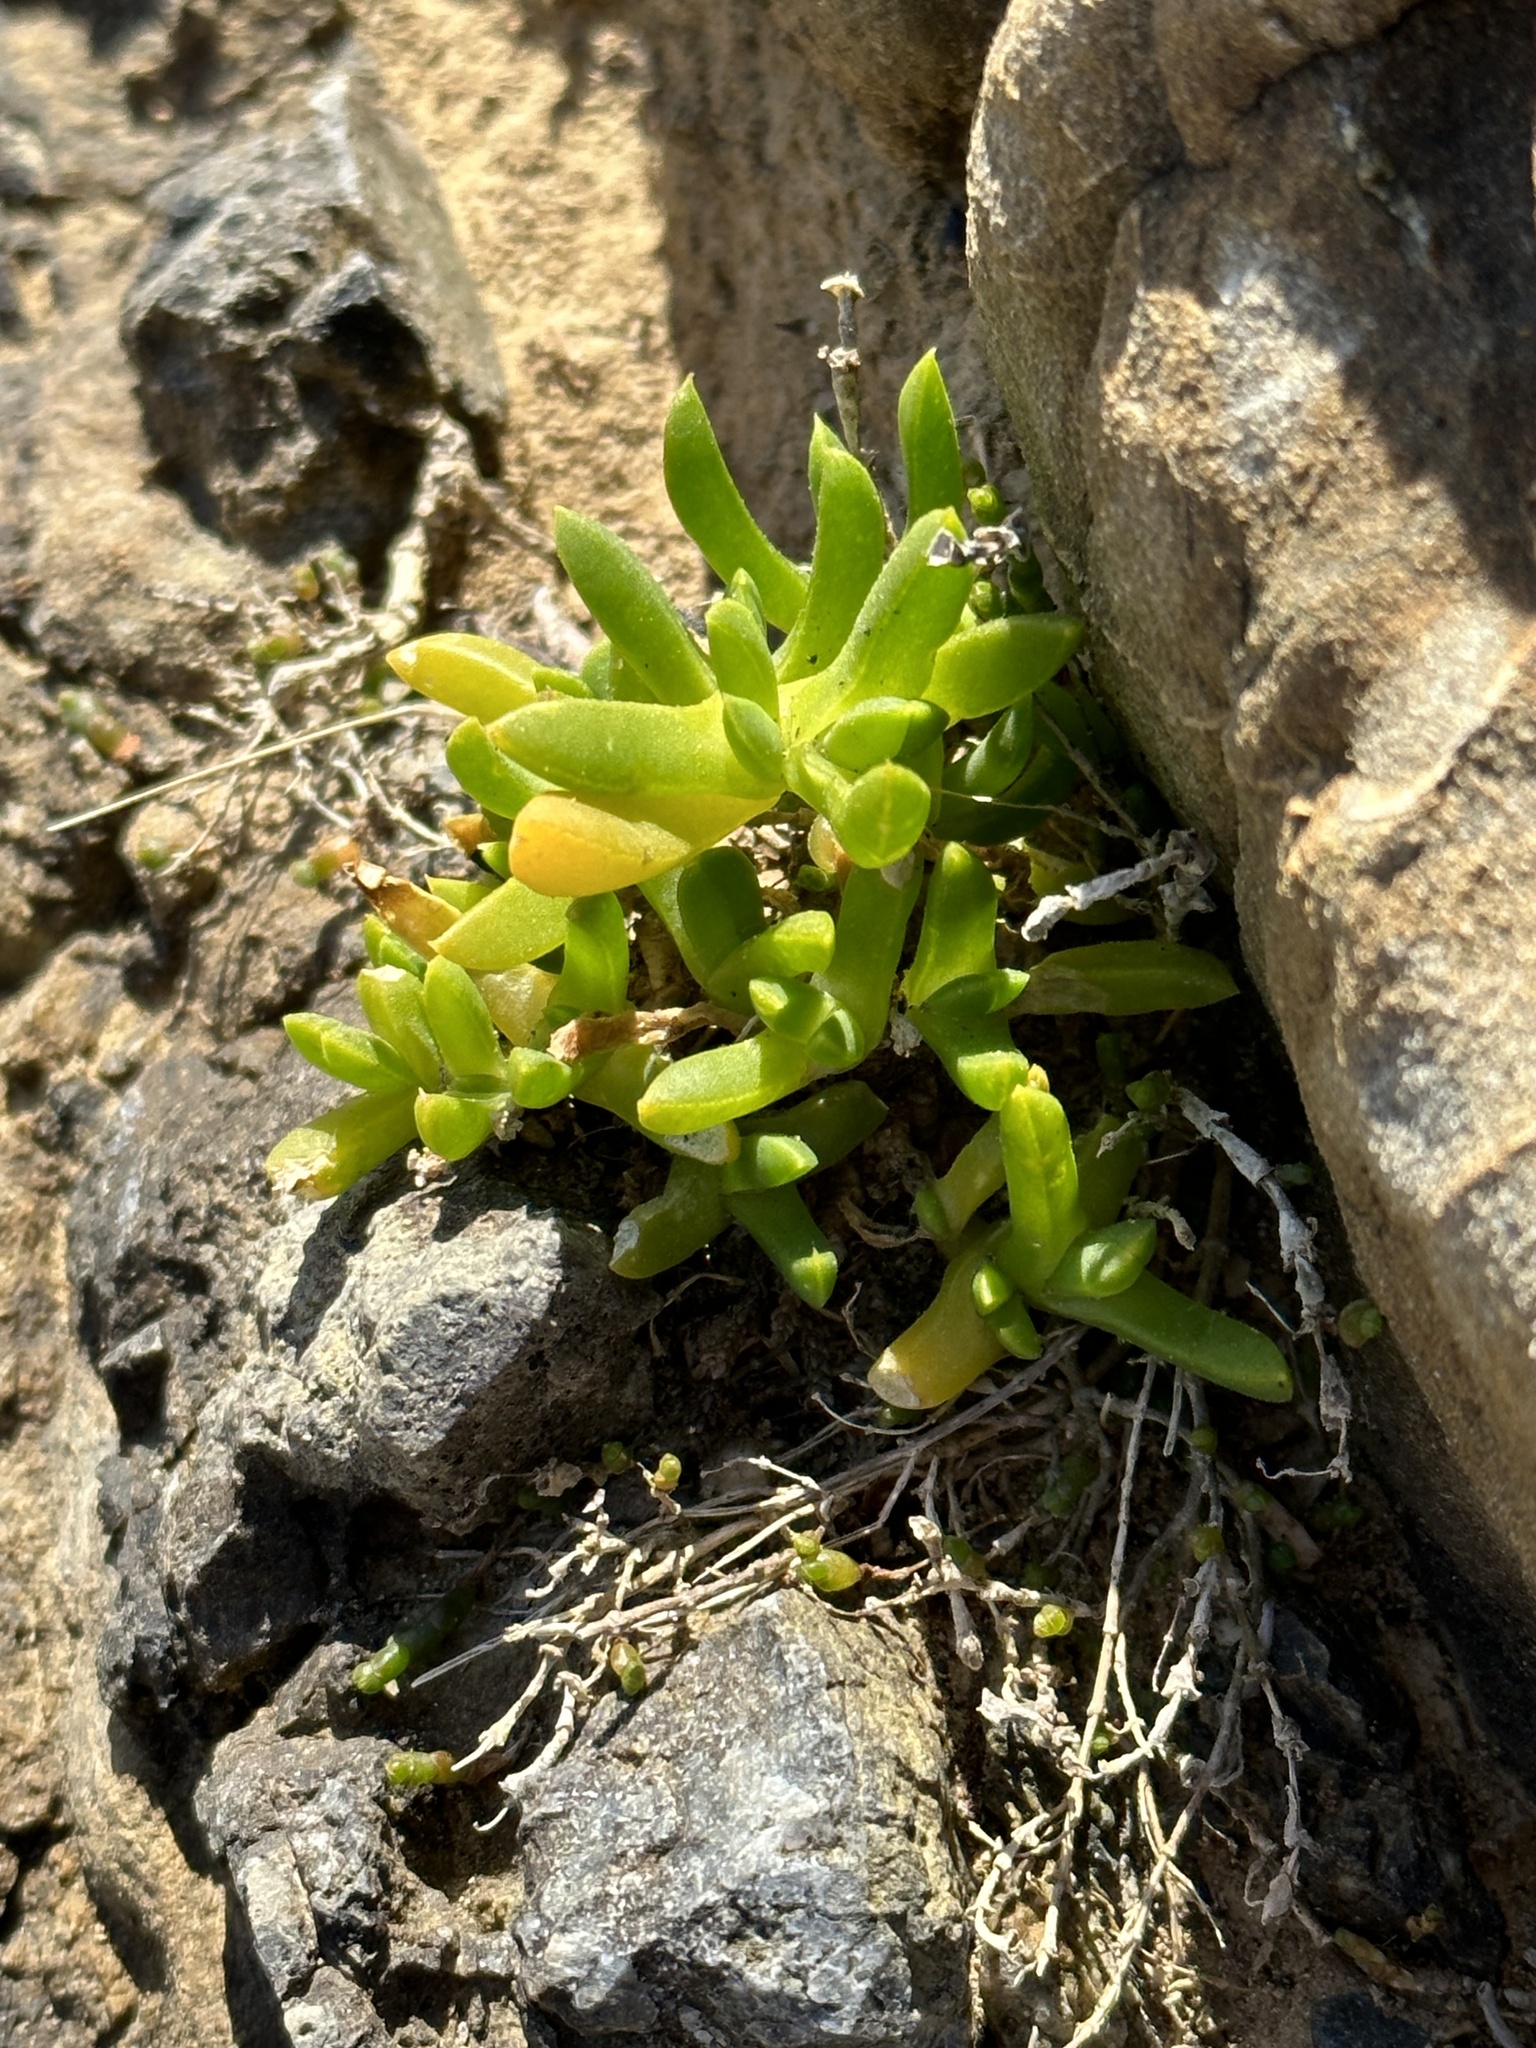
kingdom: Plantae
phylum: Tracheophyta
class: Magnoliopsida
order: Caryophyllales
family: Aizoaceae
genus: Disphyma
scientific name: Disphyma australe
